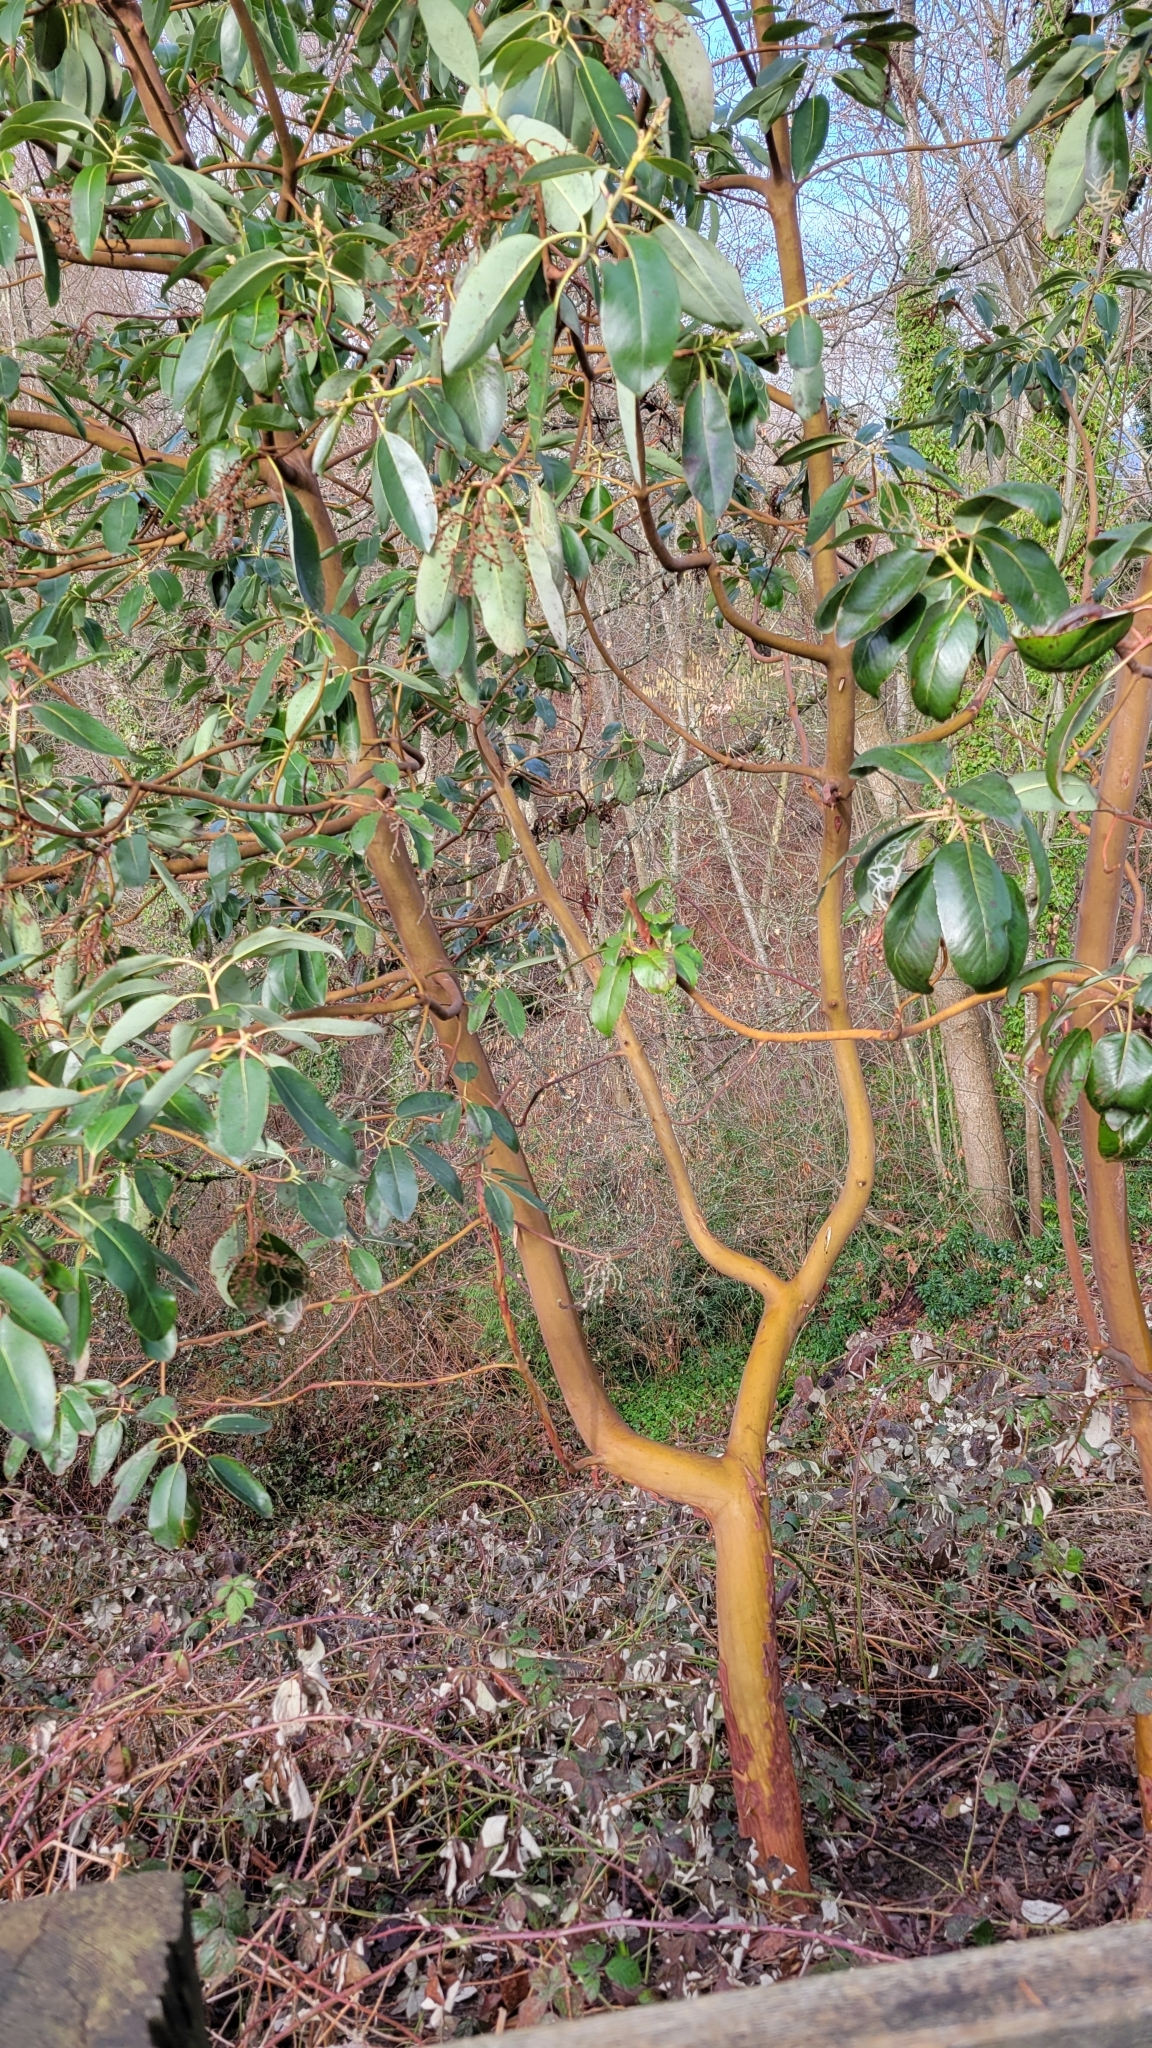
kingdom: Plantae
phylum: Tracheophyta
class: Magnoliopsida
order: Ericales
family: Ericaceae
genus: Arbutus
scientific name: Arbutus menziesii
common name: Pacific madrone
